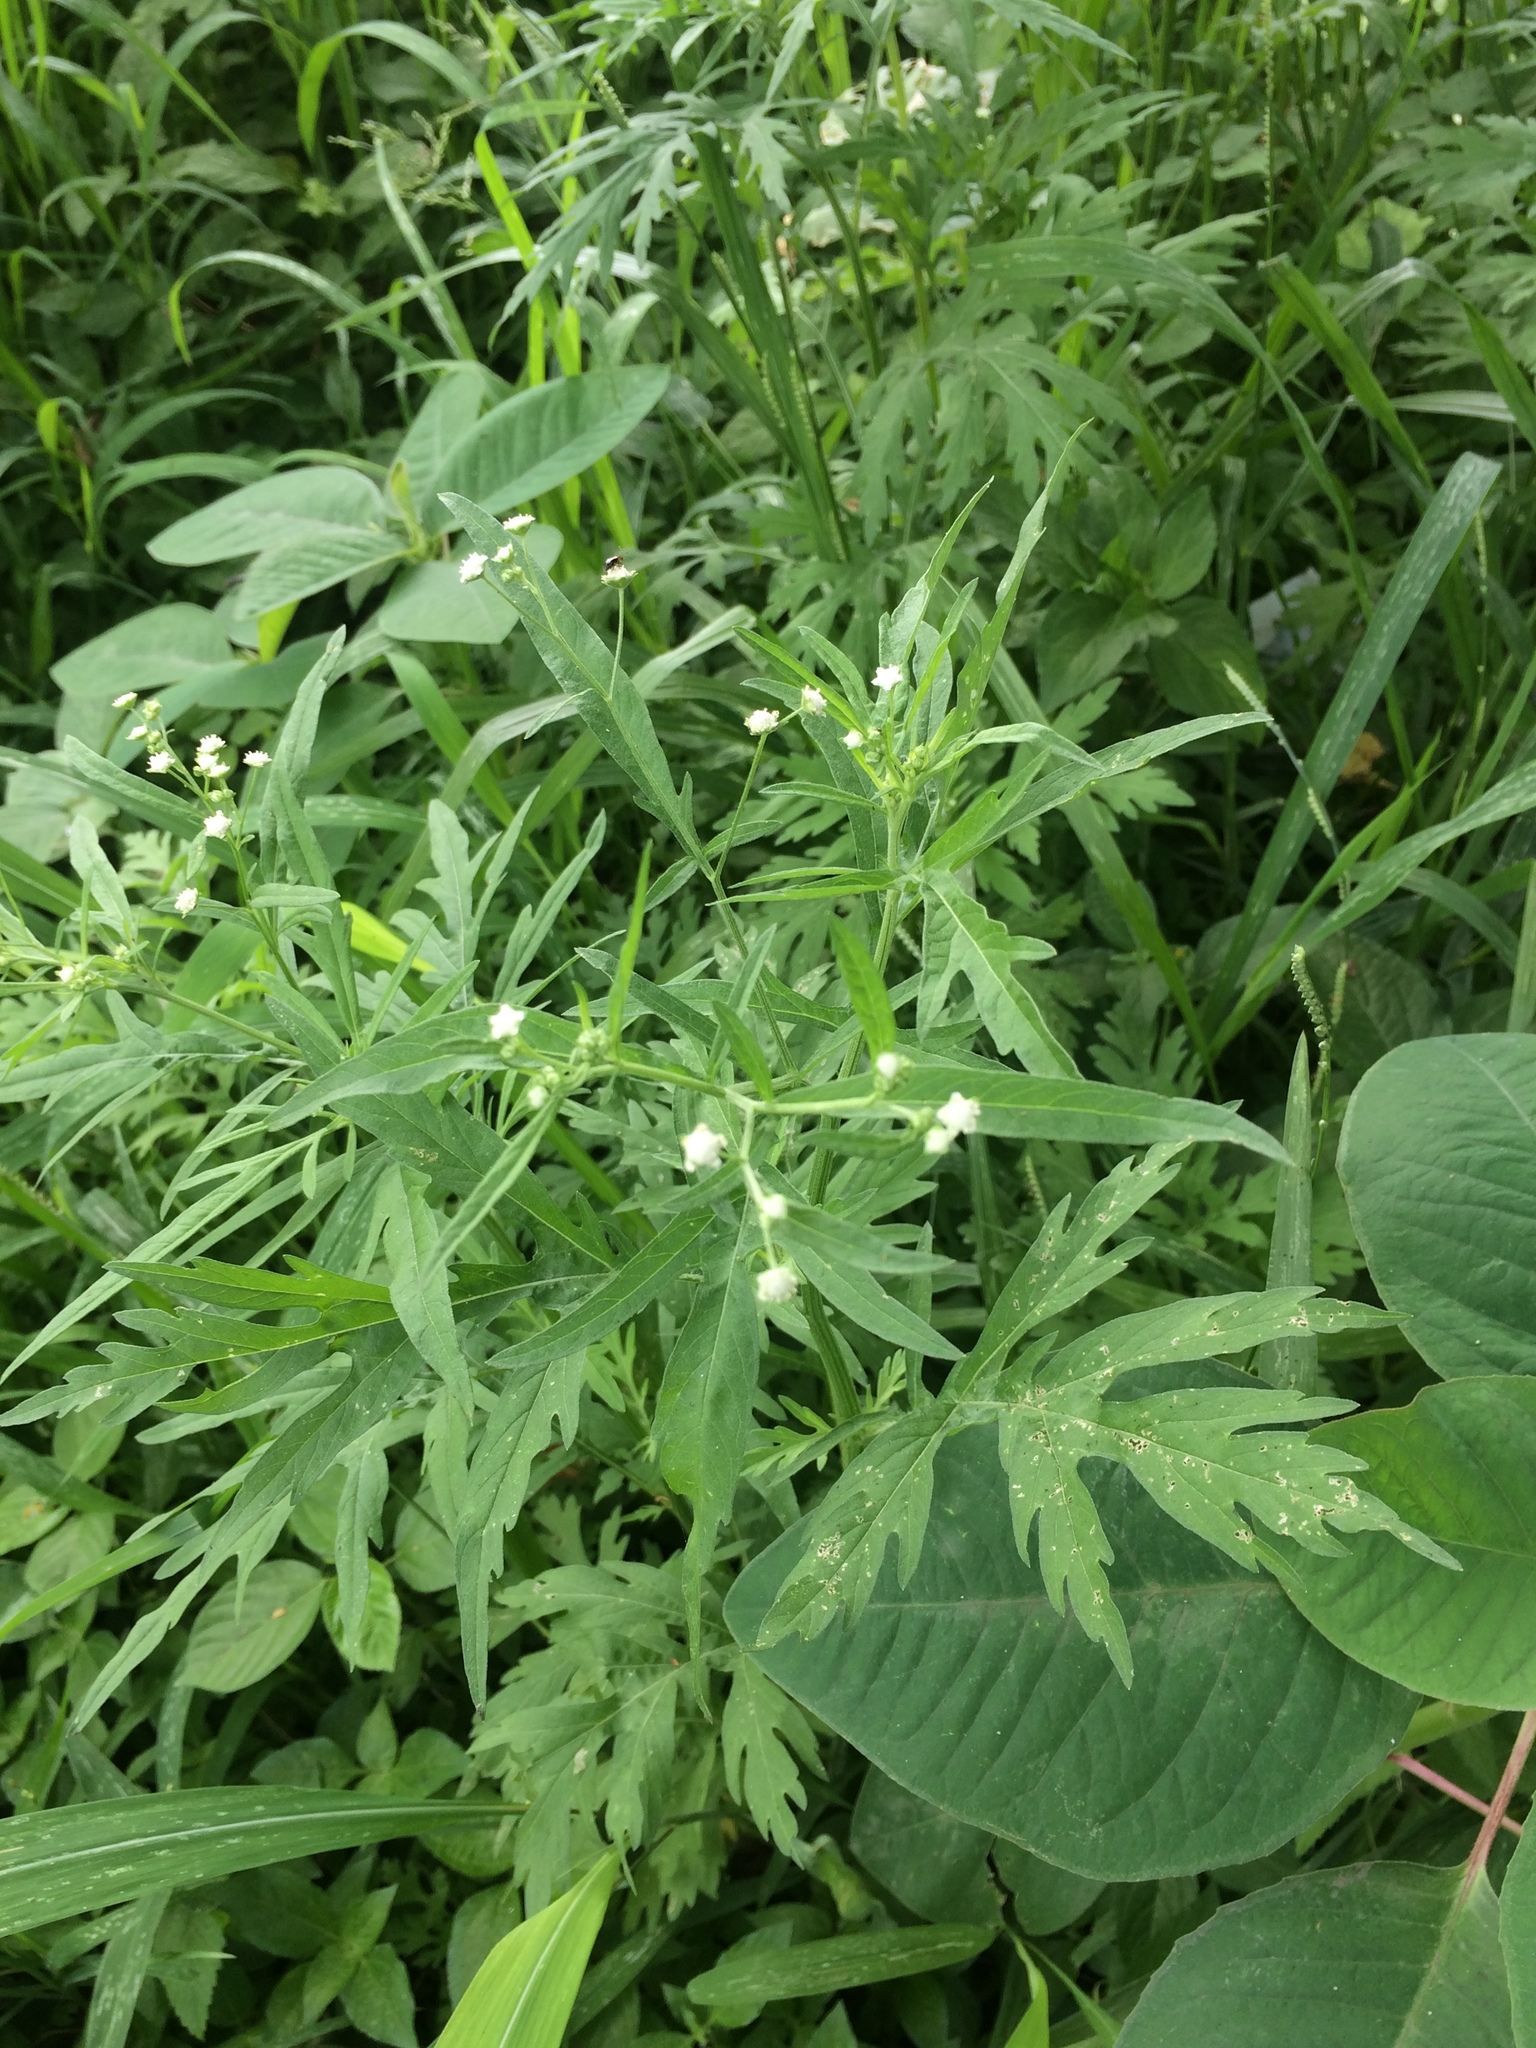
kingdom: Plantae
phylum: Tracheophyta
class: Magnoliopsida
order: Asterales
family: Asteraceae
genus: Parthenium
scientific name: Parthenium hysterophorus
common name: Santa maria feverfew
